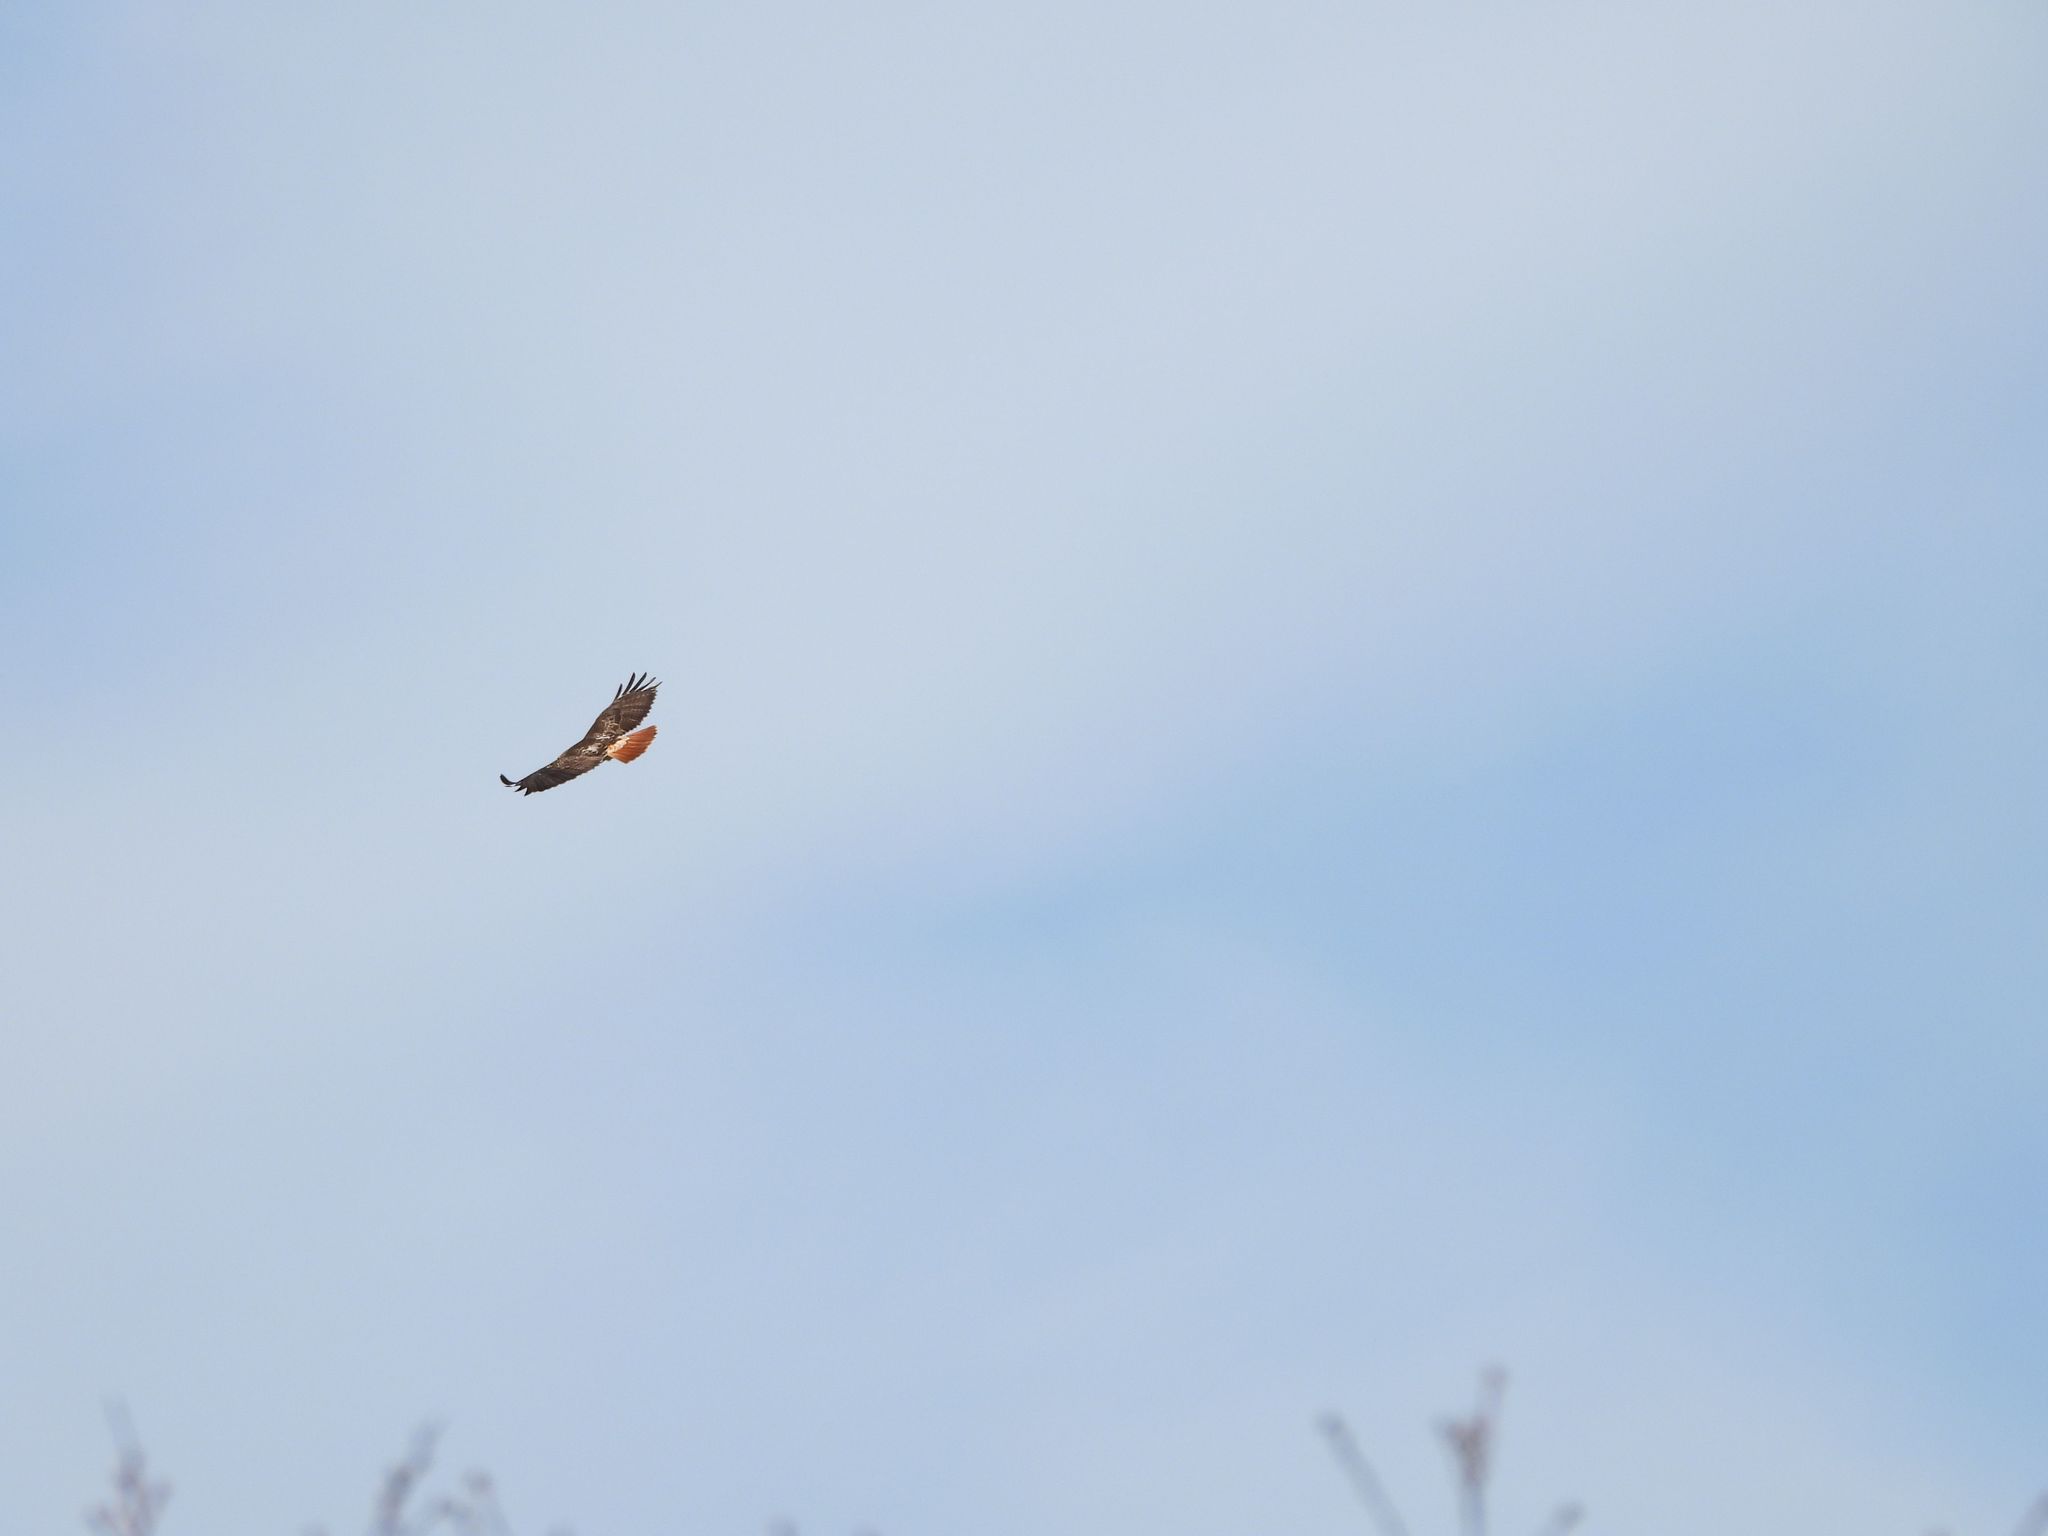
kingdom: Animalia
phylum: Chordata
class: Aves
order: Accipitriformes
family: Accipitridae
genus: Buteo
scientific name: Buteo jamaicensis
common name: Red-tailed hawk
